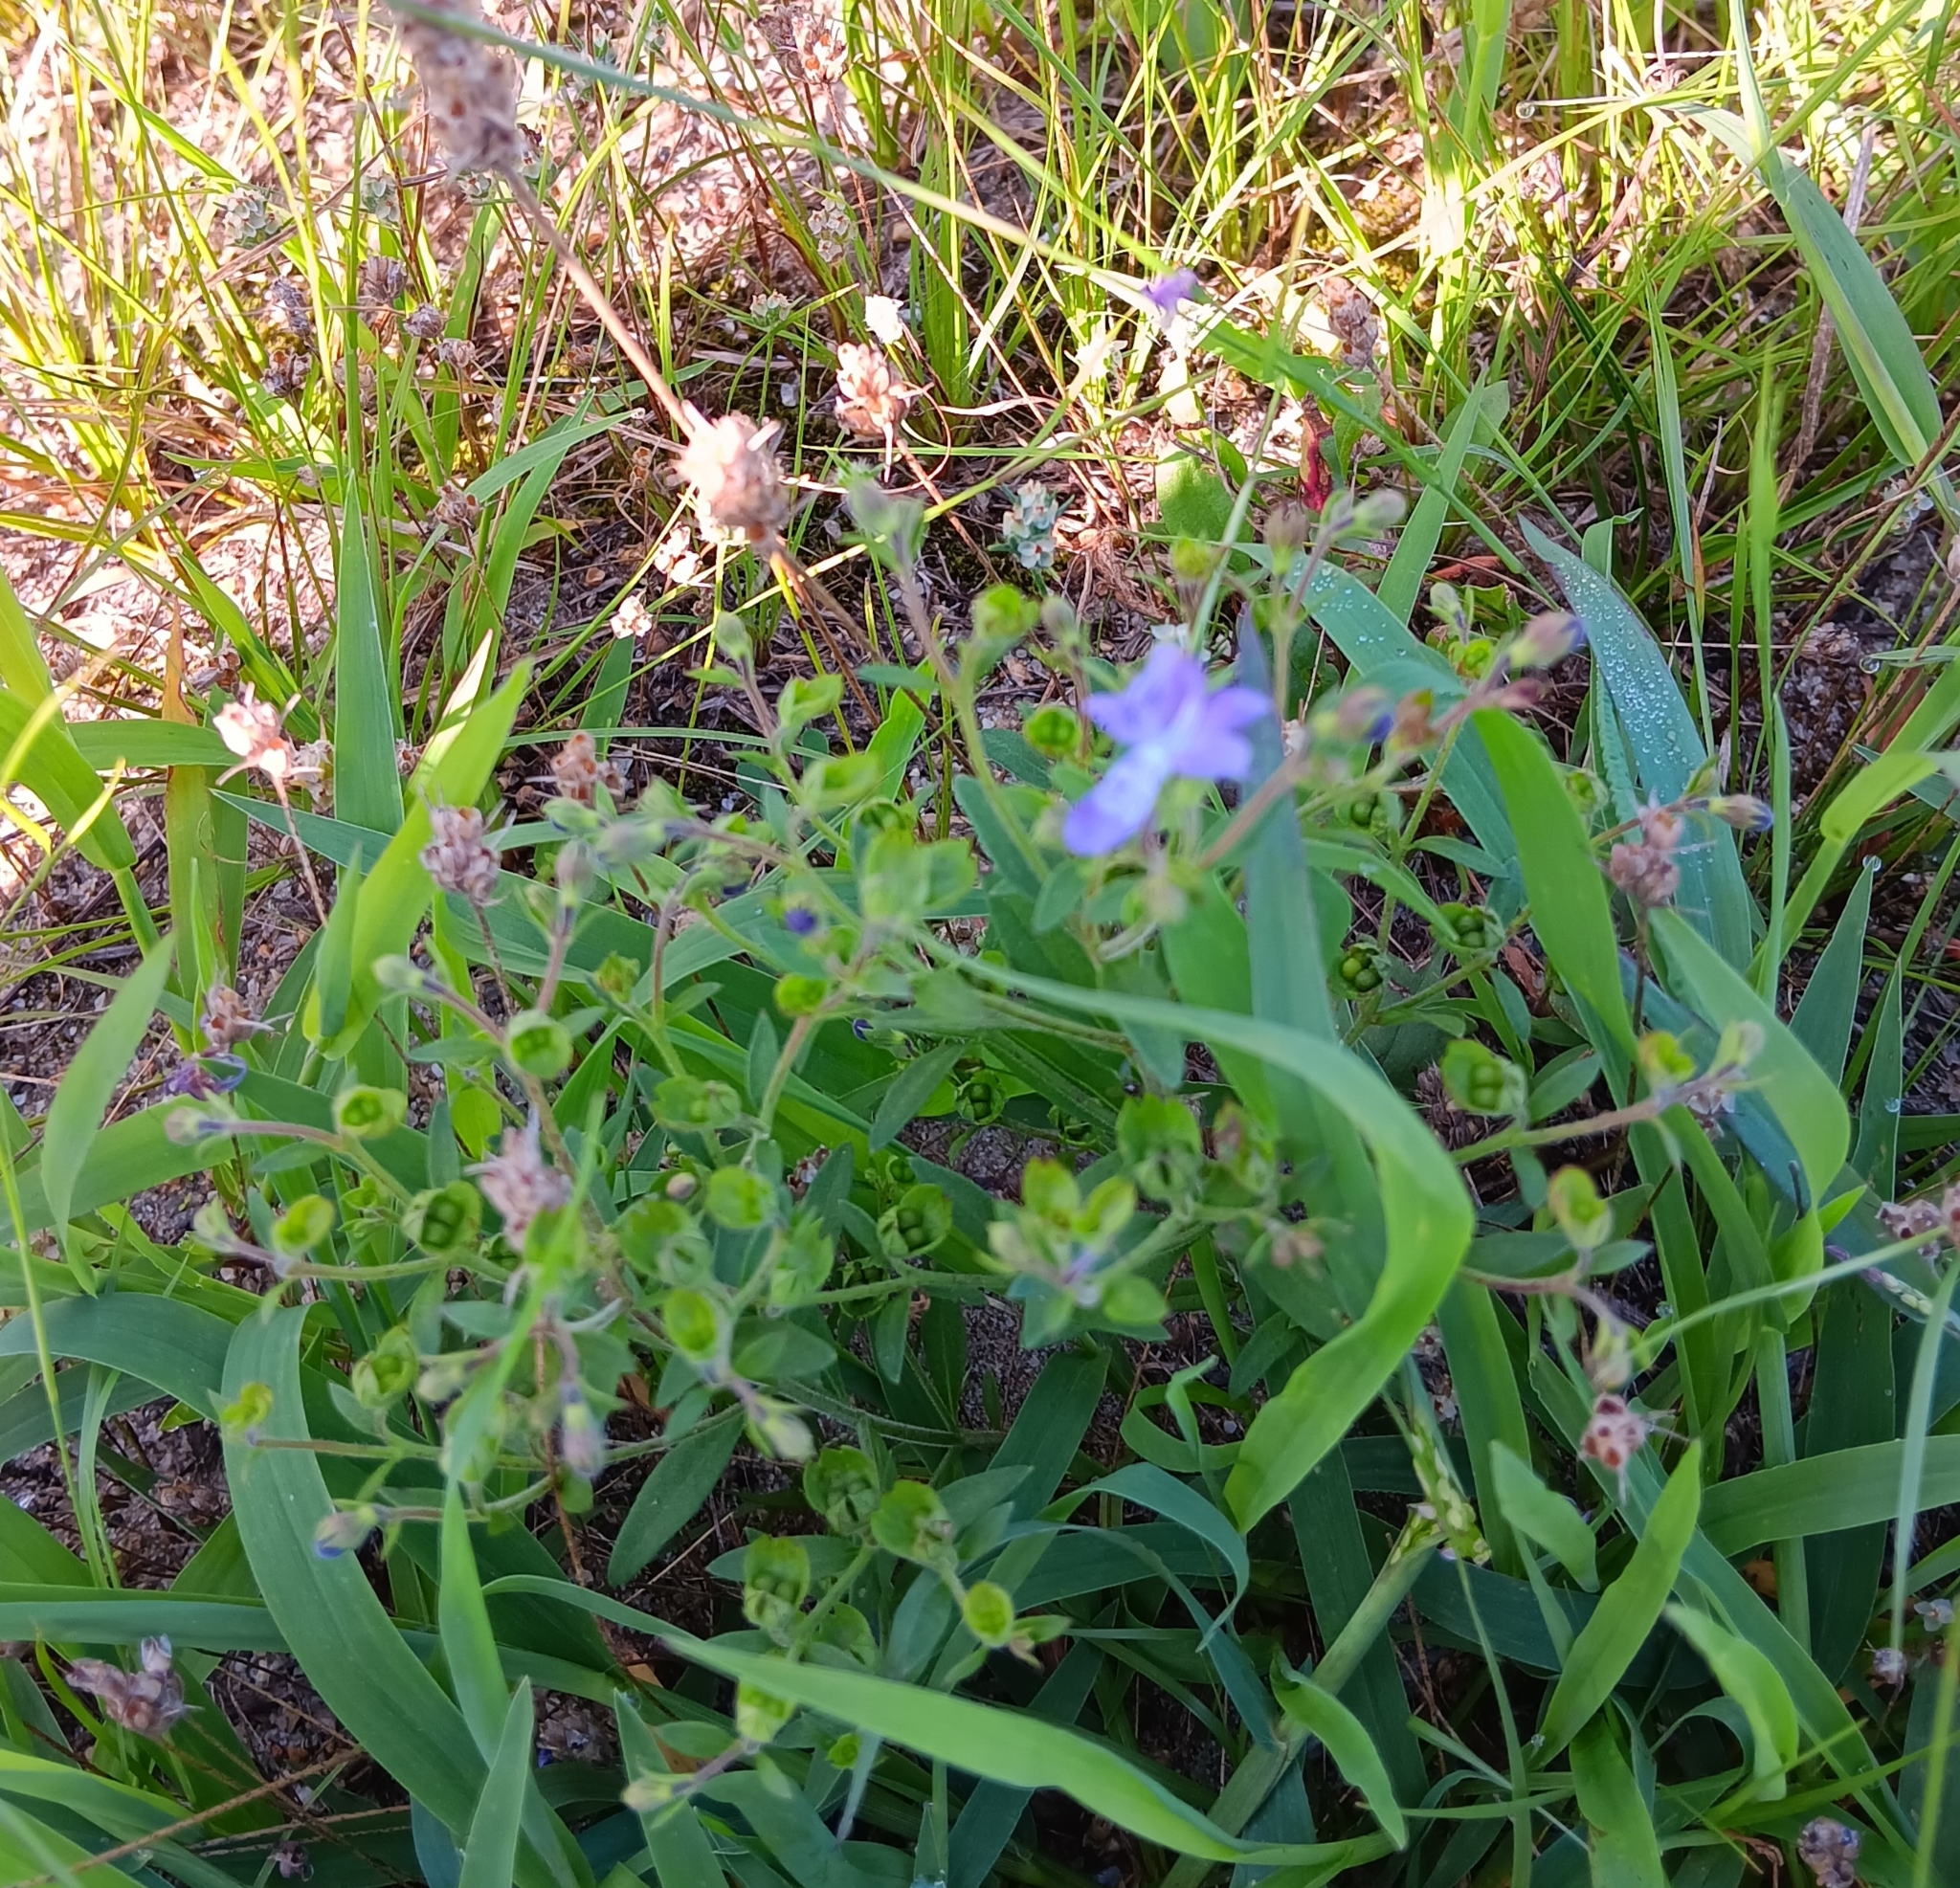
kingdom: Plantae
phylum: Tracheophyta
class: Magnoliopsida
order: Lamiales
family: Lamiaceae
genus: Trichostema
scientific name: Trichostema dichotomum
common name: Bastard pennyroyal
